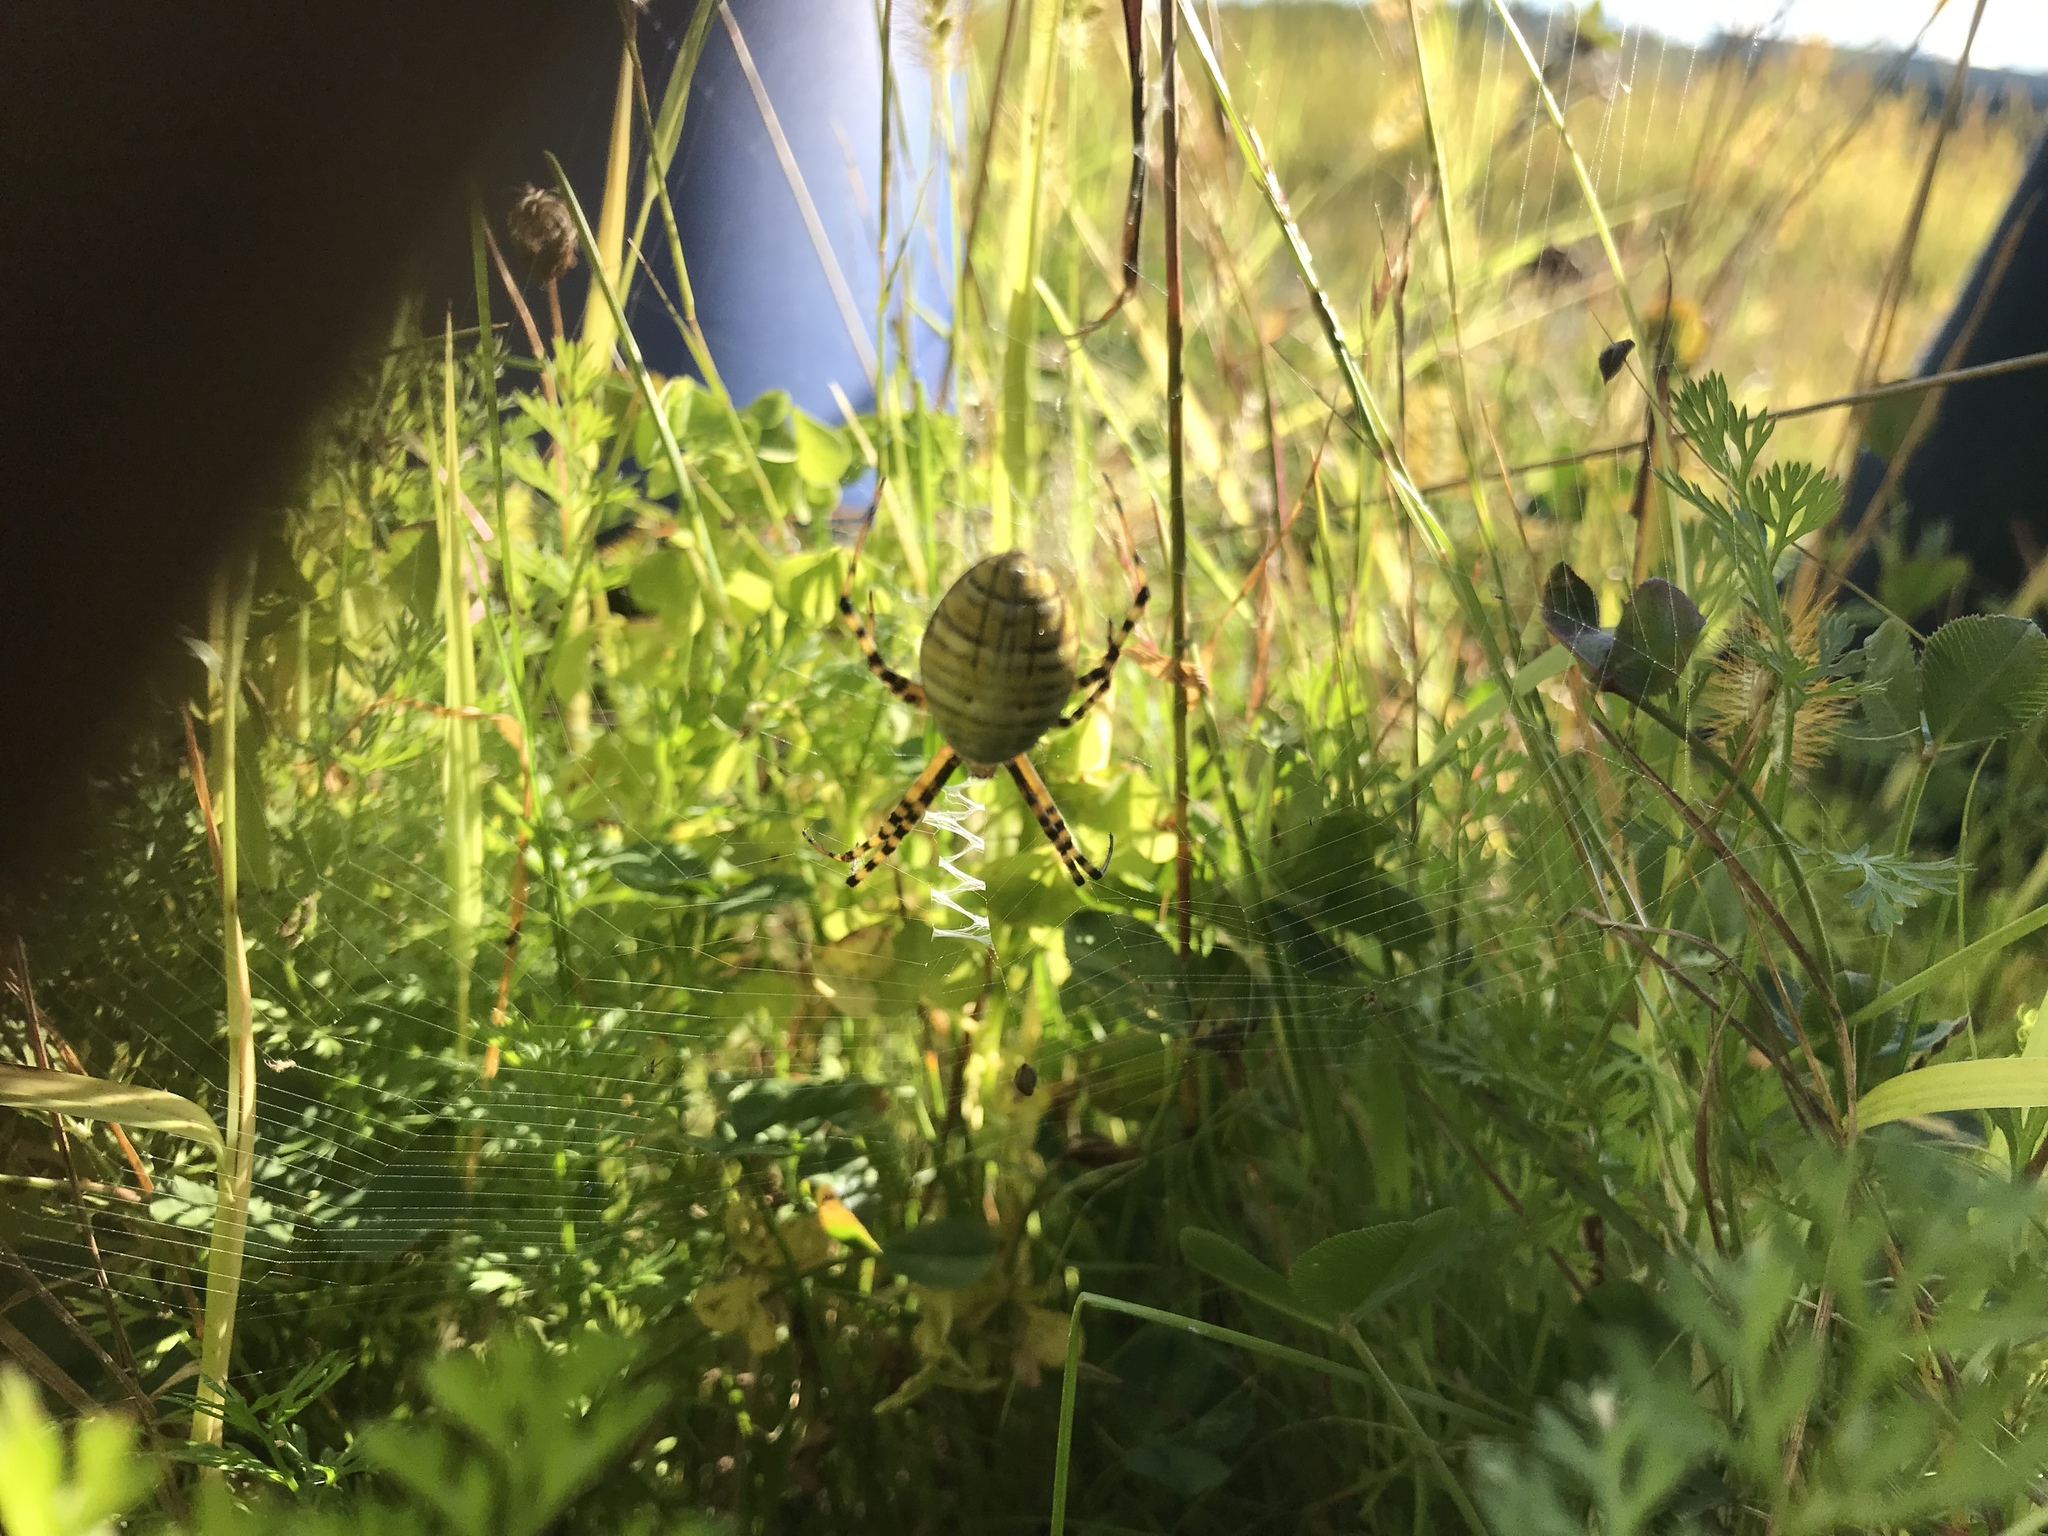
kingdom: Animalia
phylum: Arthropoda
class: Arachnida
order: Araneae
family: Araneidae
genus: Argiope
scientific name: Argiope trifasciata
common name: Banded garden spider
